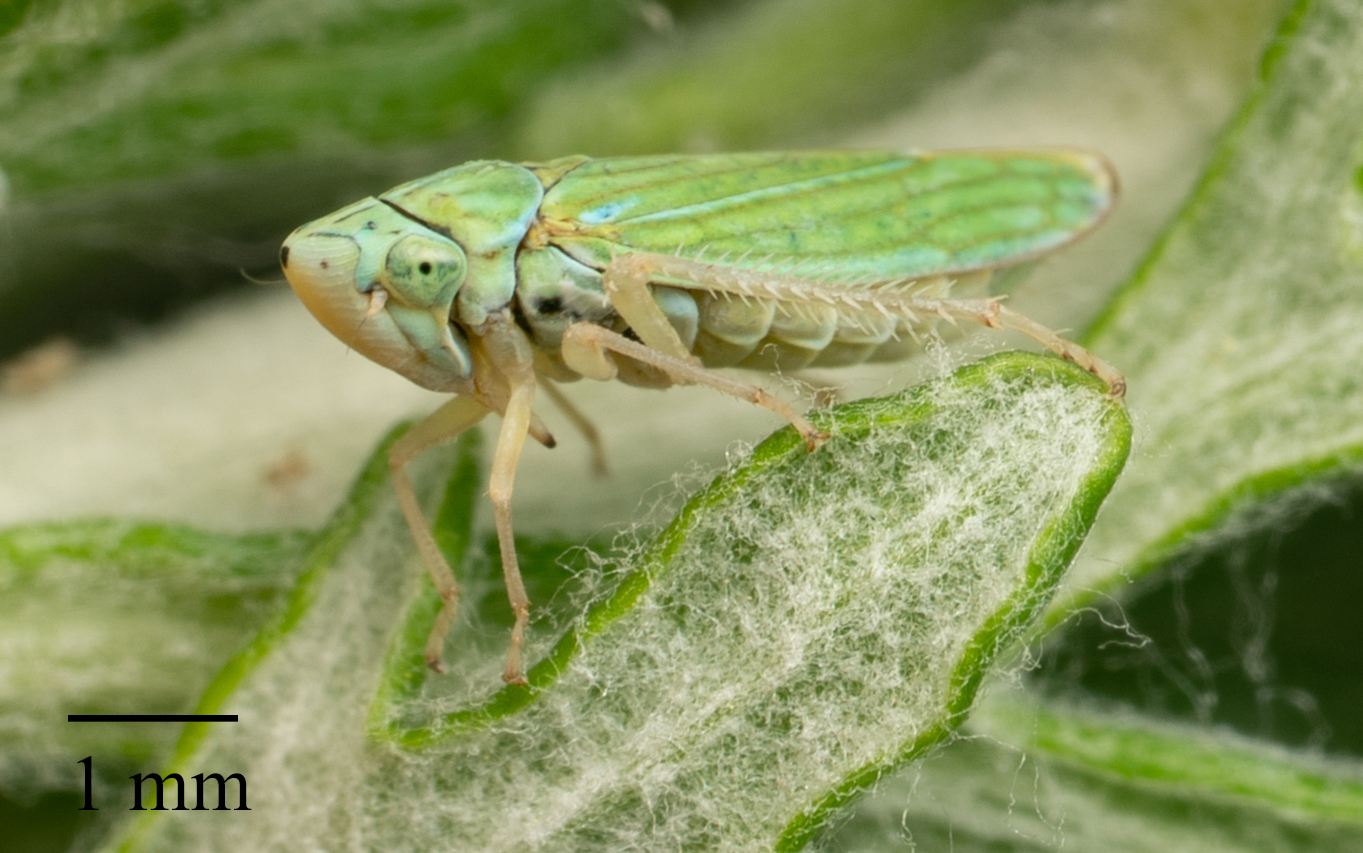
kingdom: Animalia
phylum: Arthropoda
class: Insecta
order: Hemiptera
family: Cicadellidae
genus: Graphocephala
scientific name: Graphocephala cythura
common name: Leafhopper
